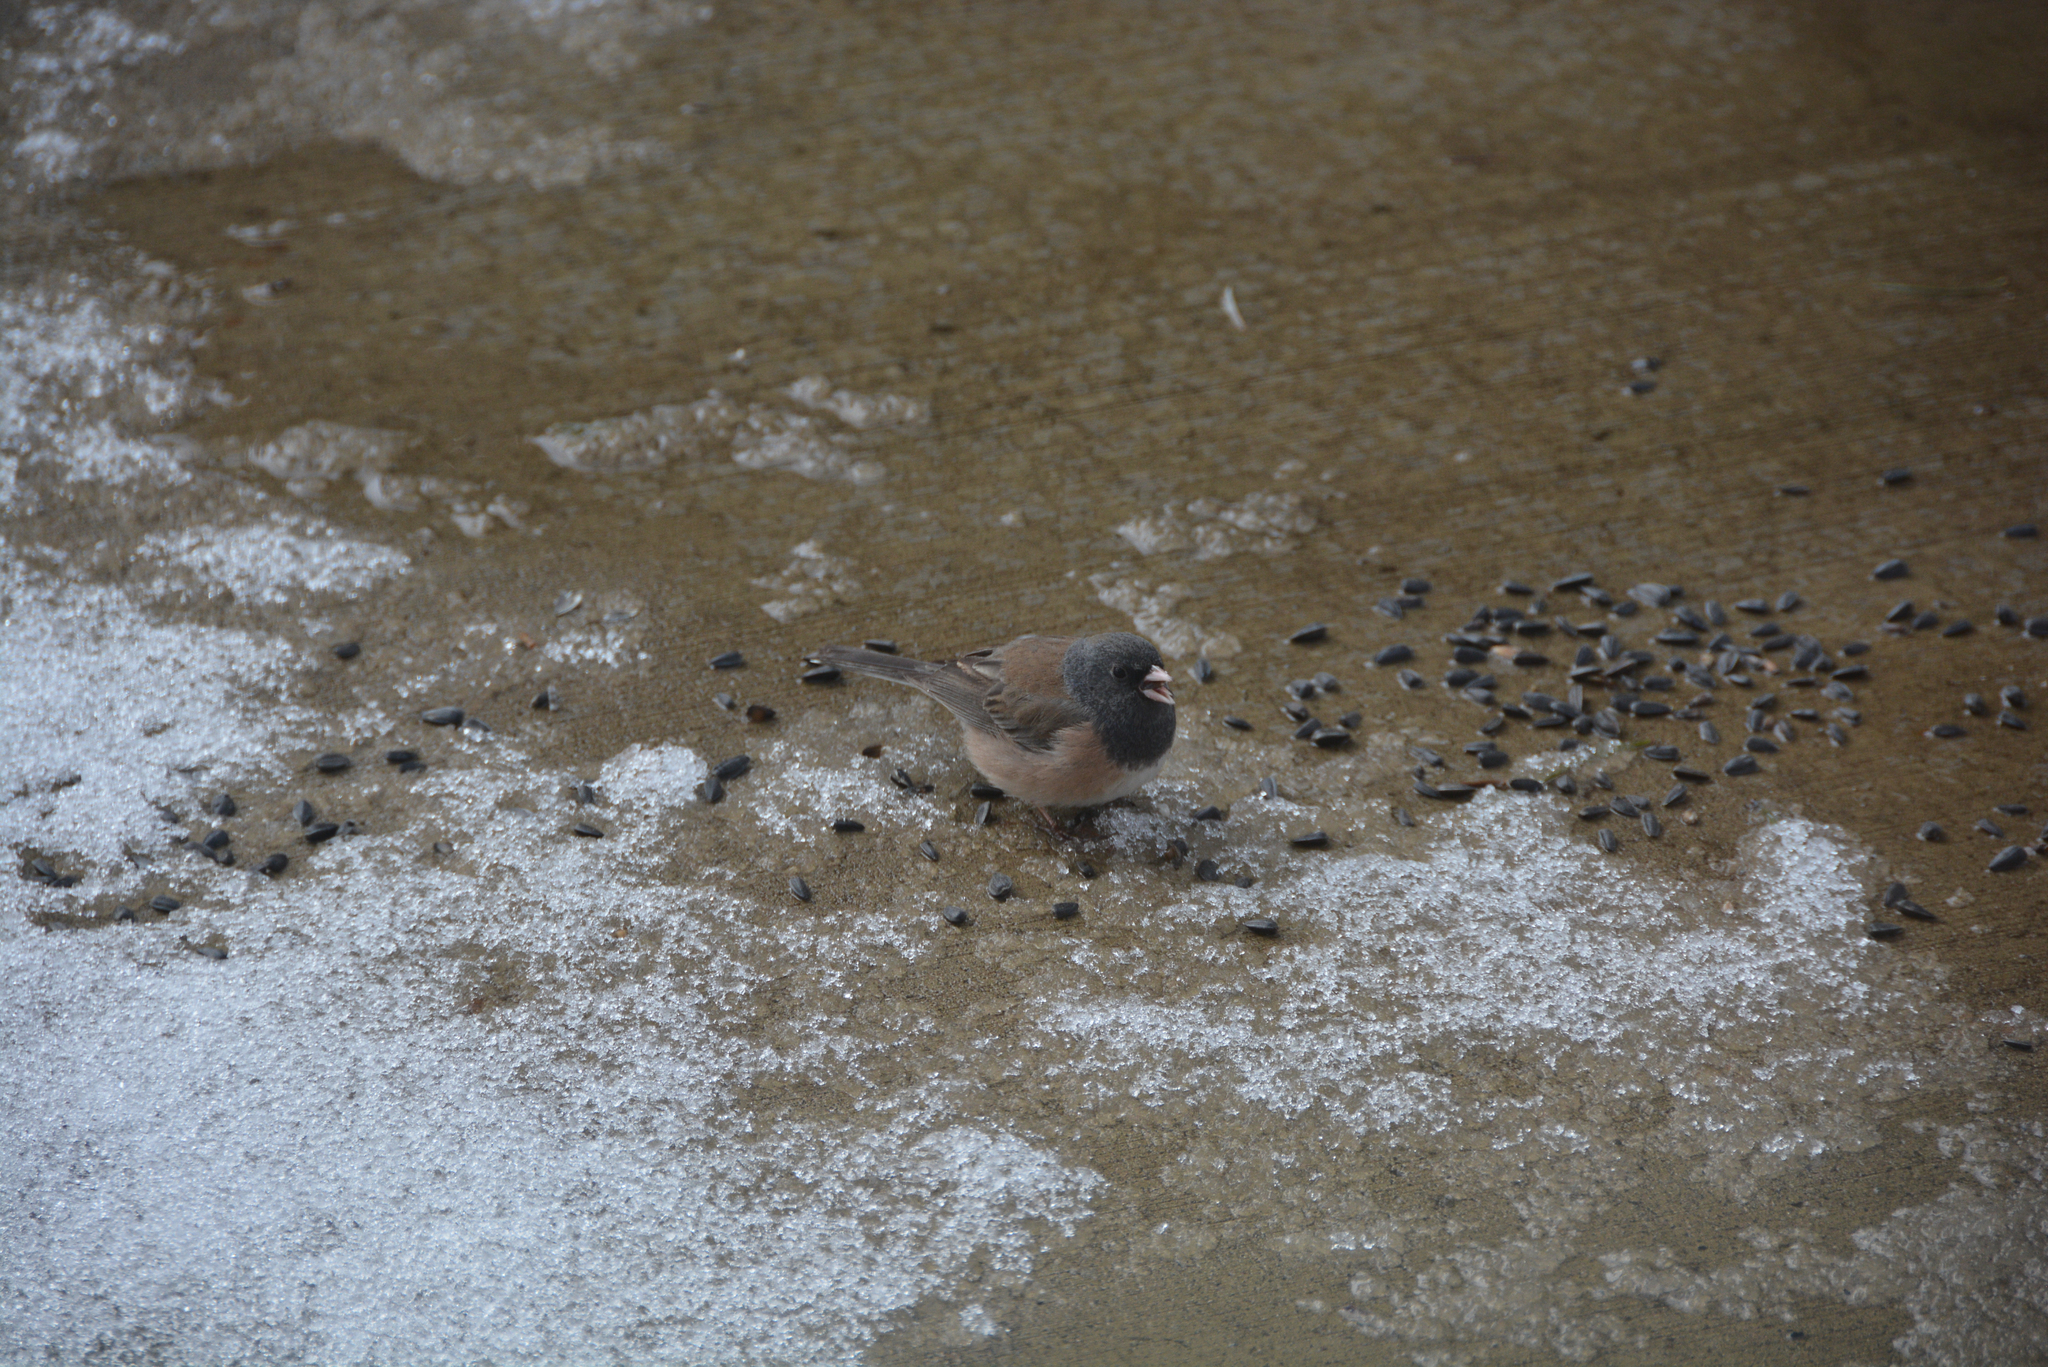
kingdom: Animalia
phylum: Chordata
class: Aves
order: Passeriformes
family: Passerellidae
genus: Junco
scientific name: Junco hyemalis
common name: Dark-eyed junco
